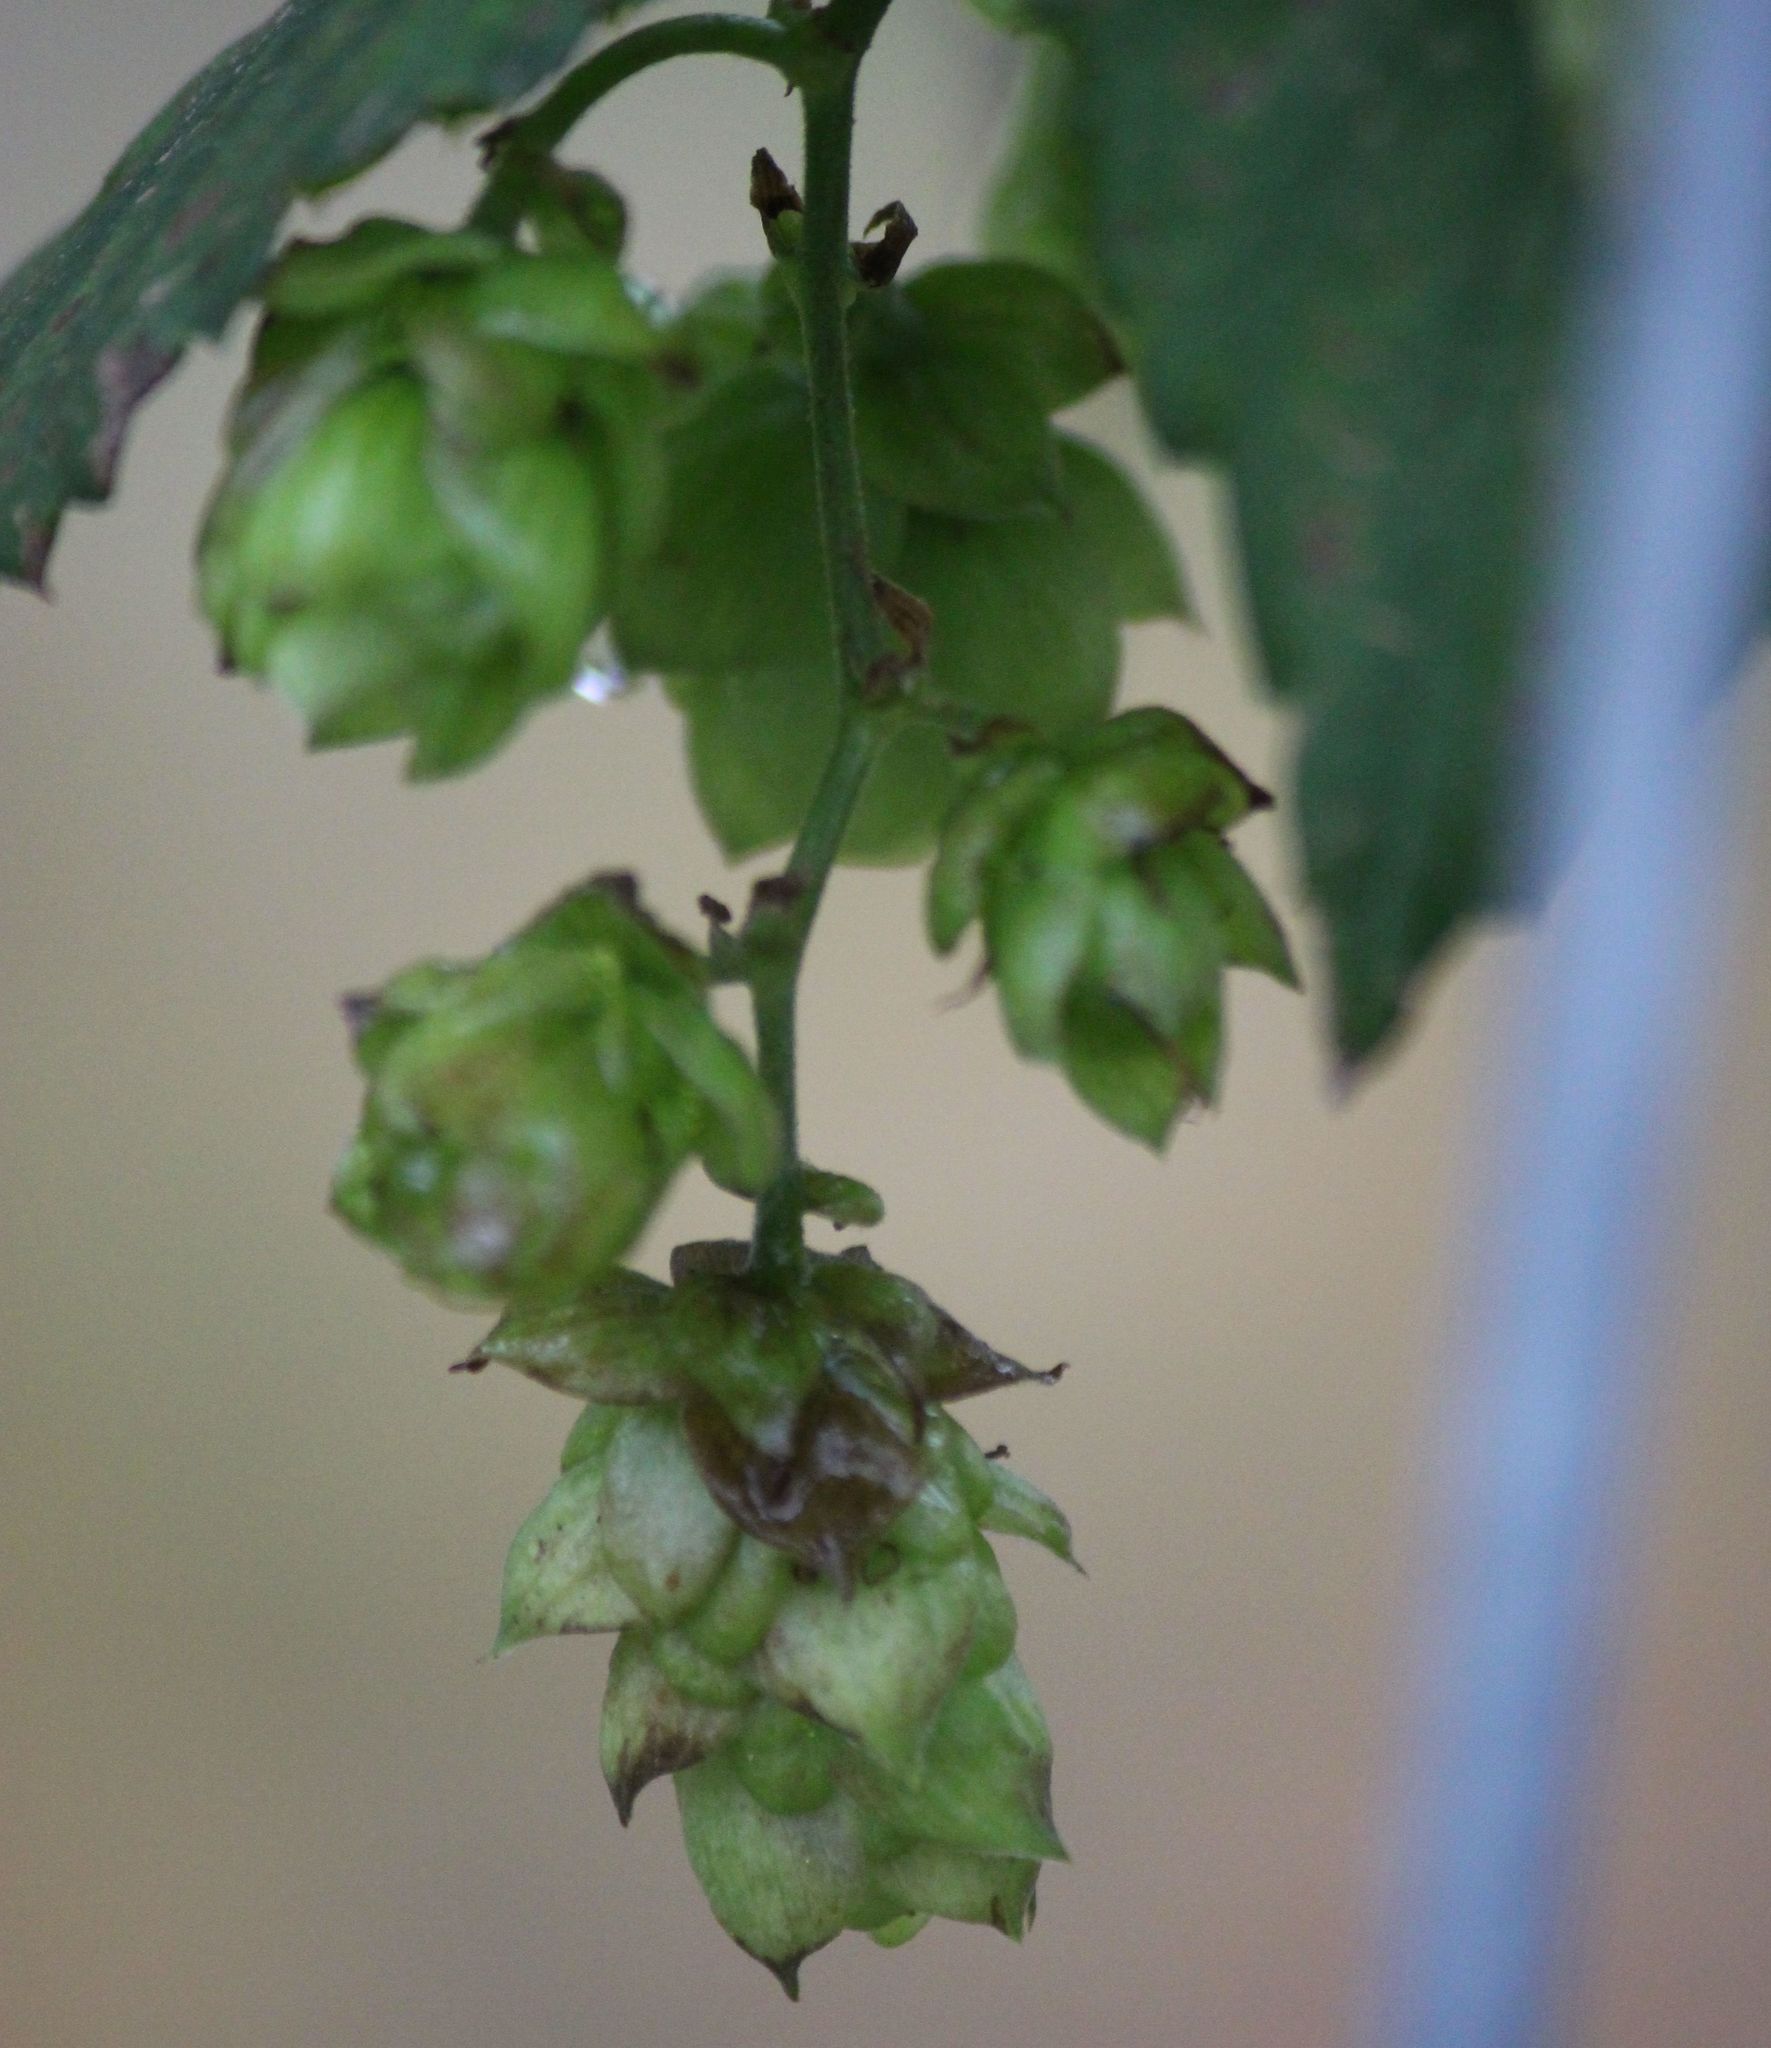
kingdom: Plantae
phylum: Tracheophyta
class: Magnoliopsida
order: Rosales
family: Cannabaceae
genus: Humulus
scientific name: Humulus lupulus
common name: Hop
